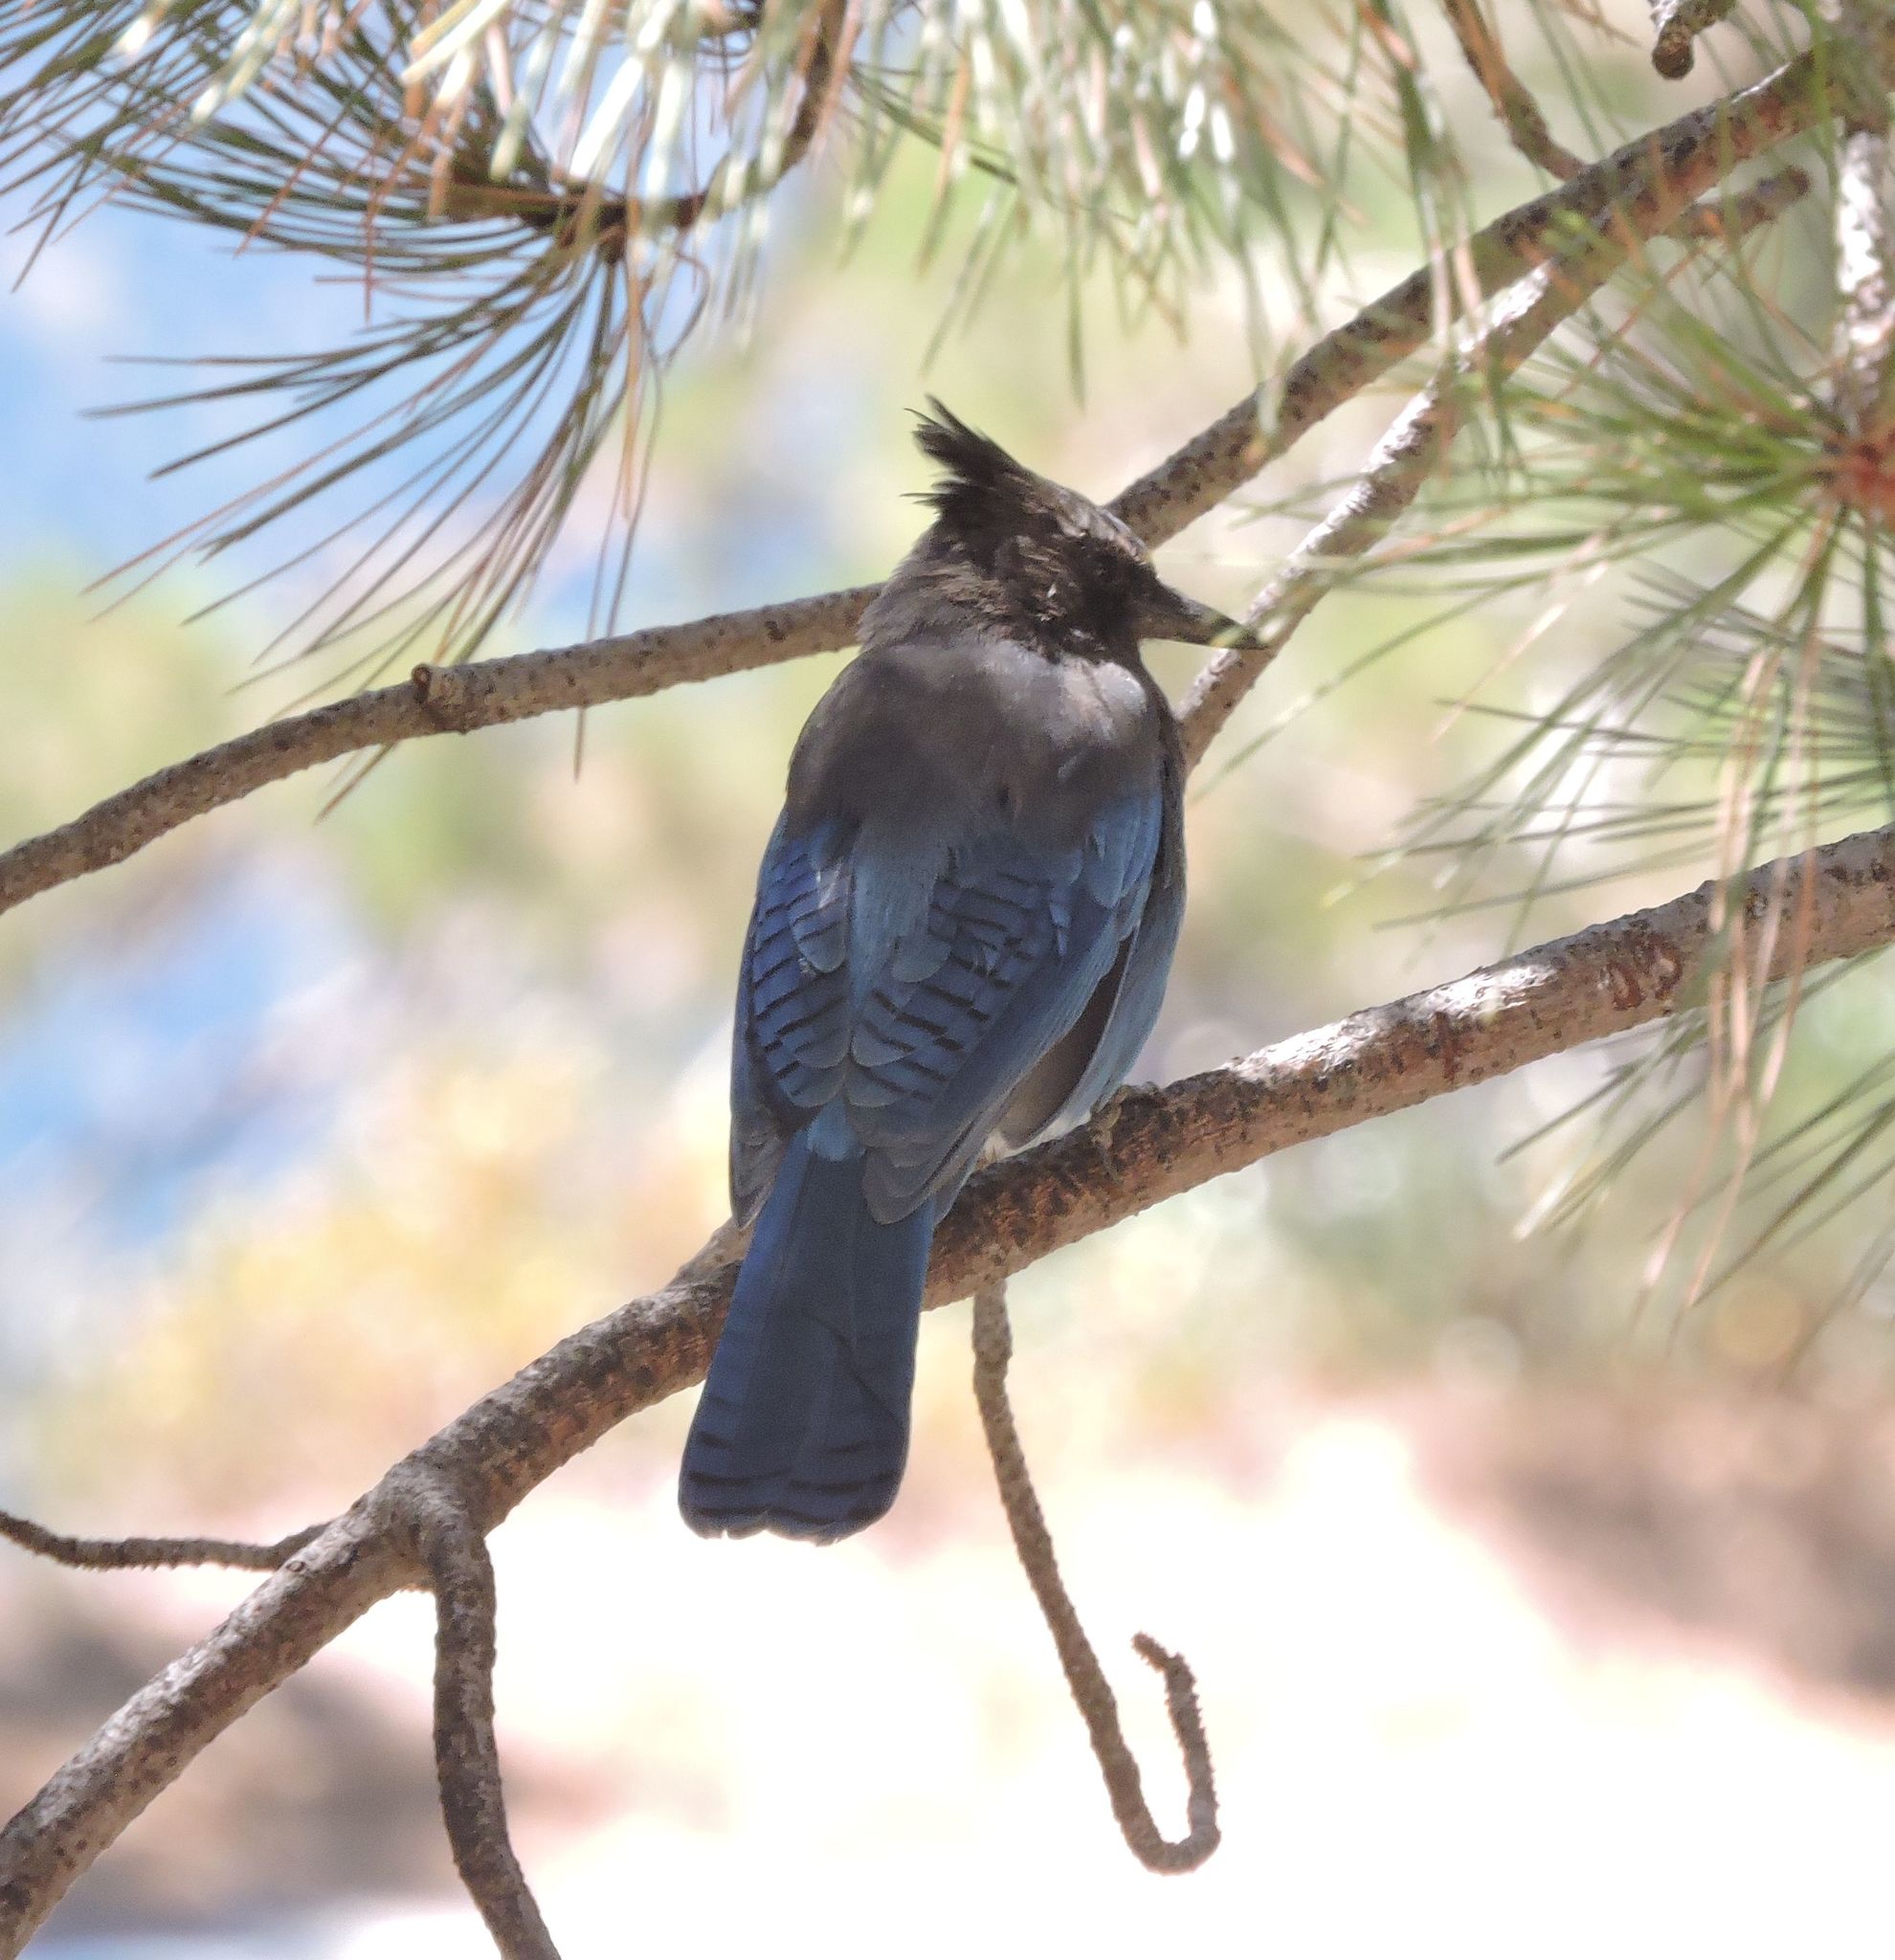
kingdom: Animalia
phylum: Chordata
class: Aves
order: Passeriformes
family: Corvidae
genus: Cyanocitta
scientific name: Cyanocitta stelleri
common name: Steller's jay
